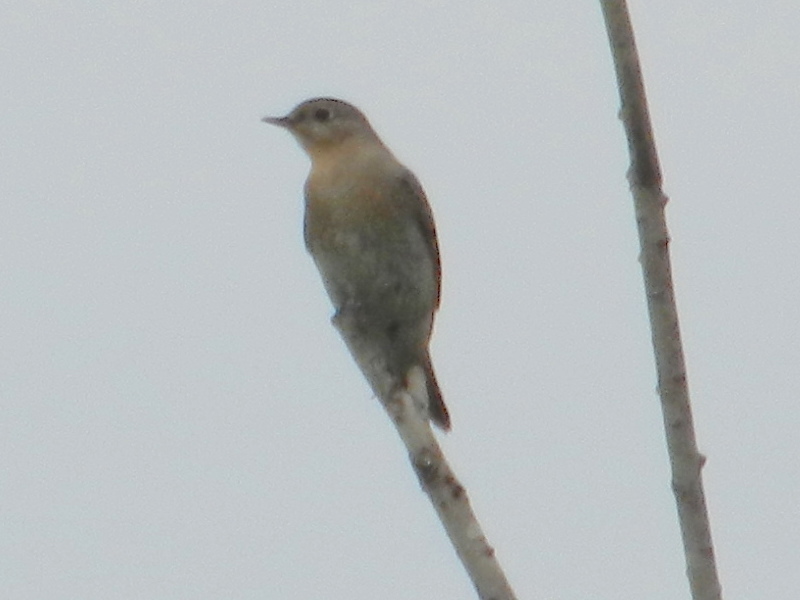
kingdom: Animalia
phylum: Chordata
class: Aves
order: Passeriformes
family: Turdidae
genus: Sialia
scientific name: Sialia currucoides
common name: Mountain bluebird
